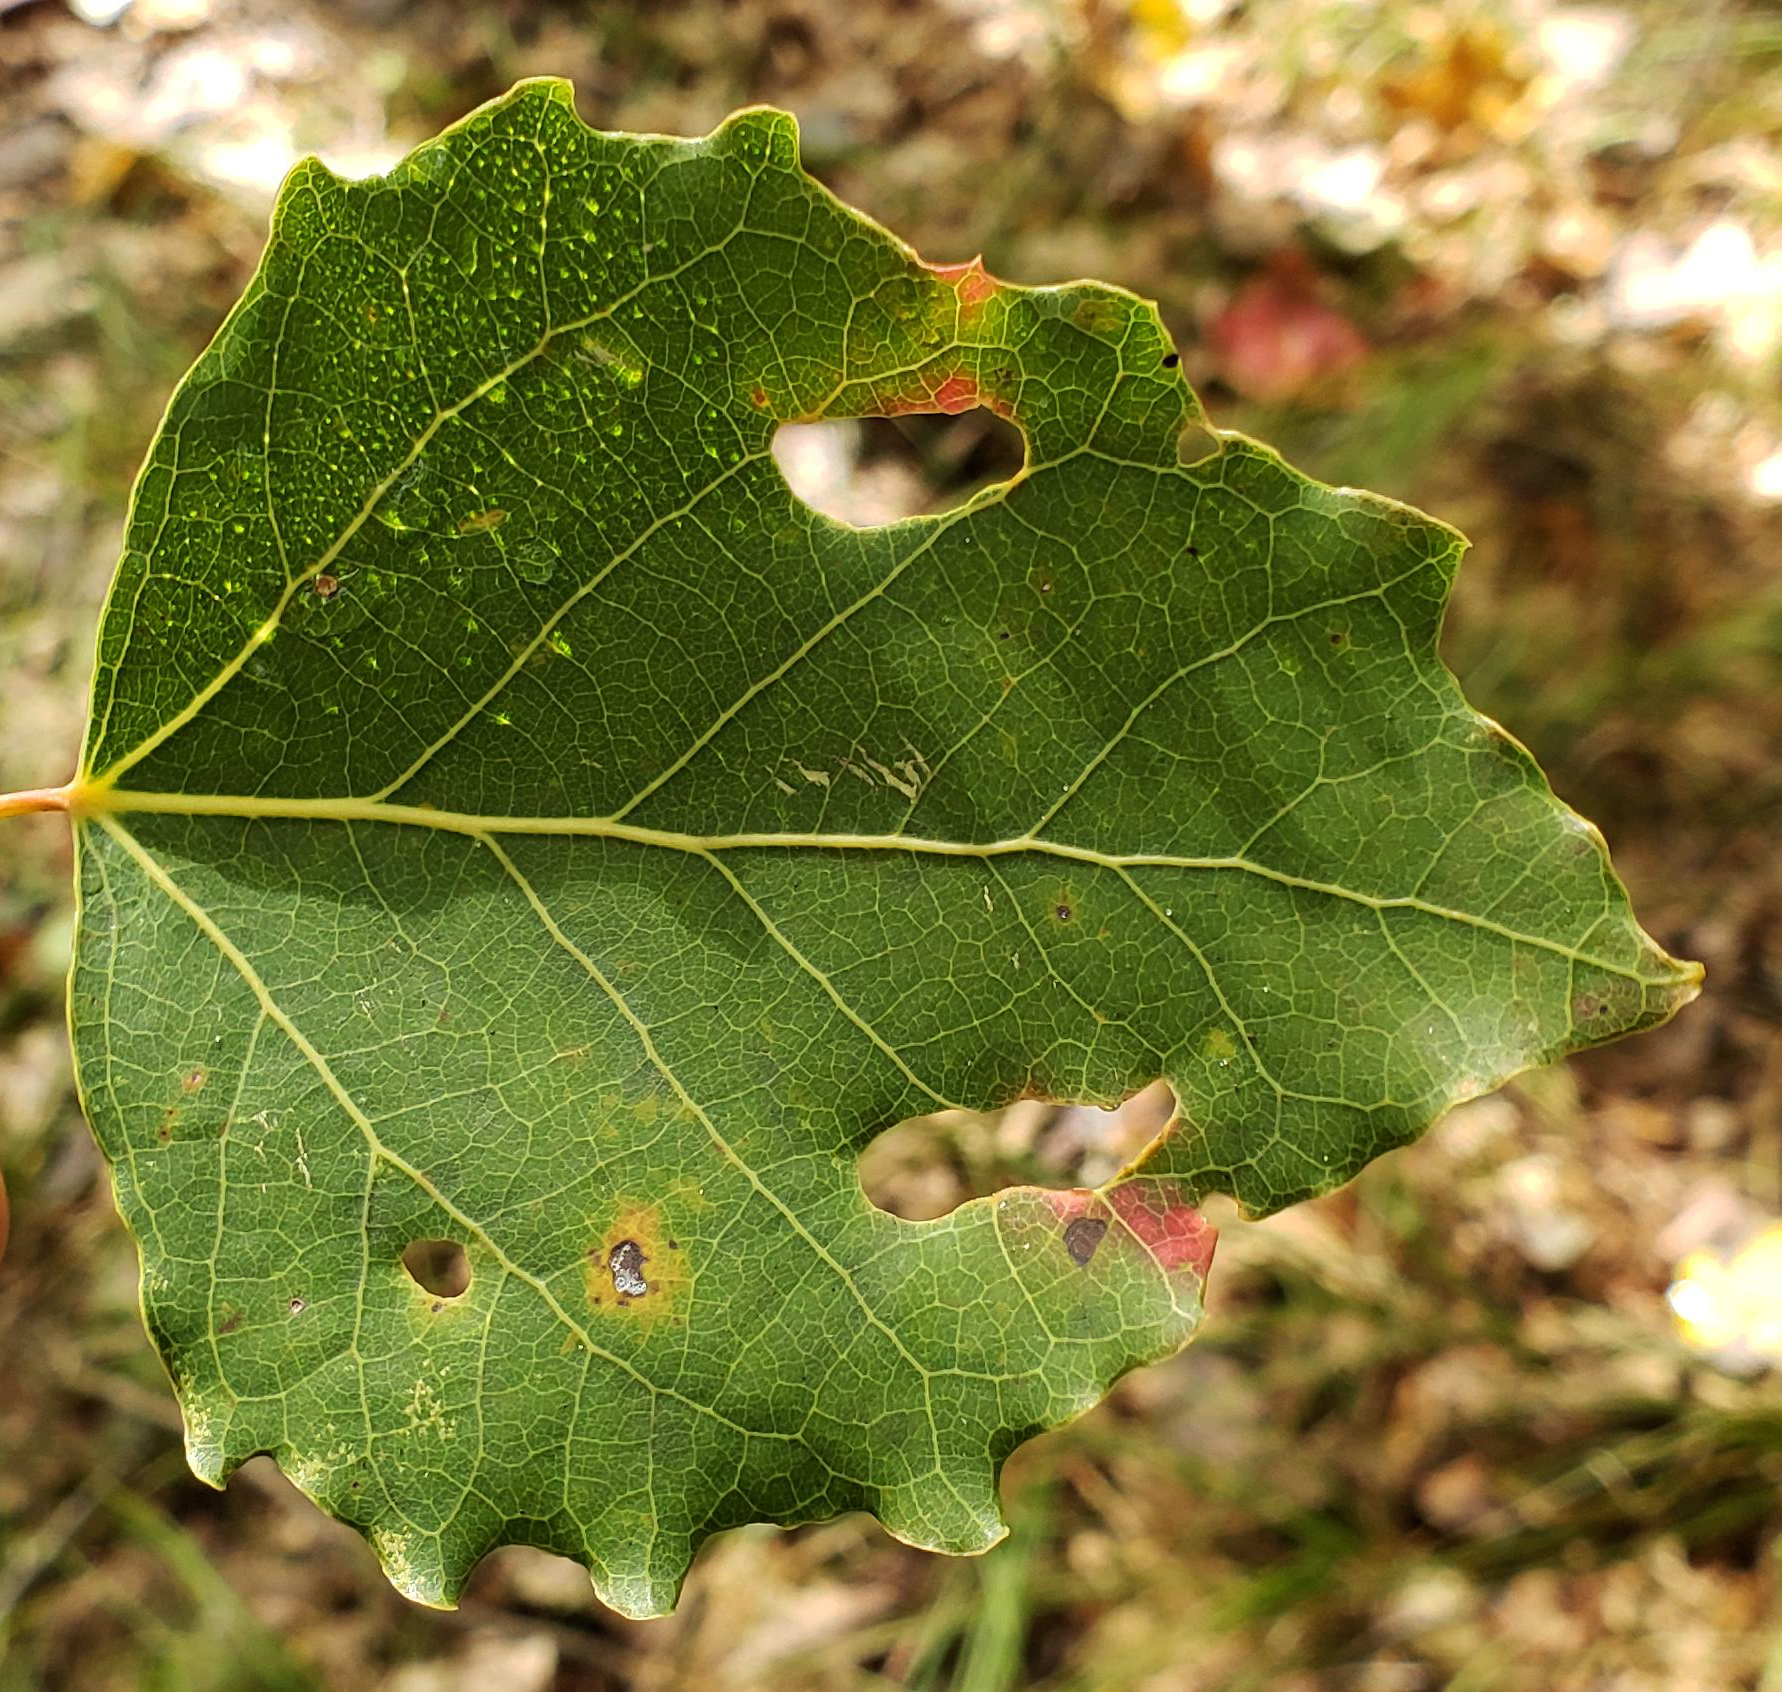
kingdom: Plantae
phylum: Tracheophyta
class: Magnoliopsida
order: Malpighiales
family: Salicaceae
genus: Populus
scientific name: Populus grandidentata
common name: Bigtooth aspen
